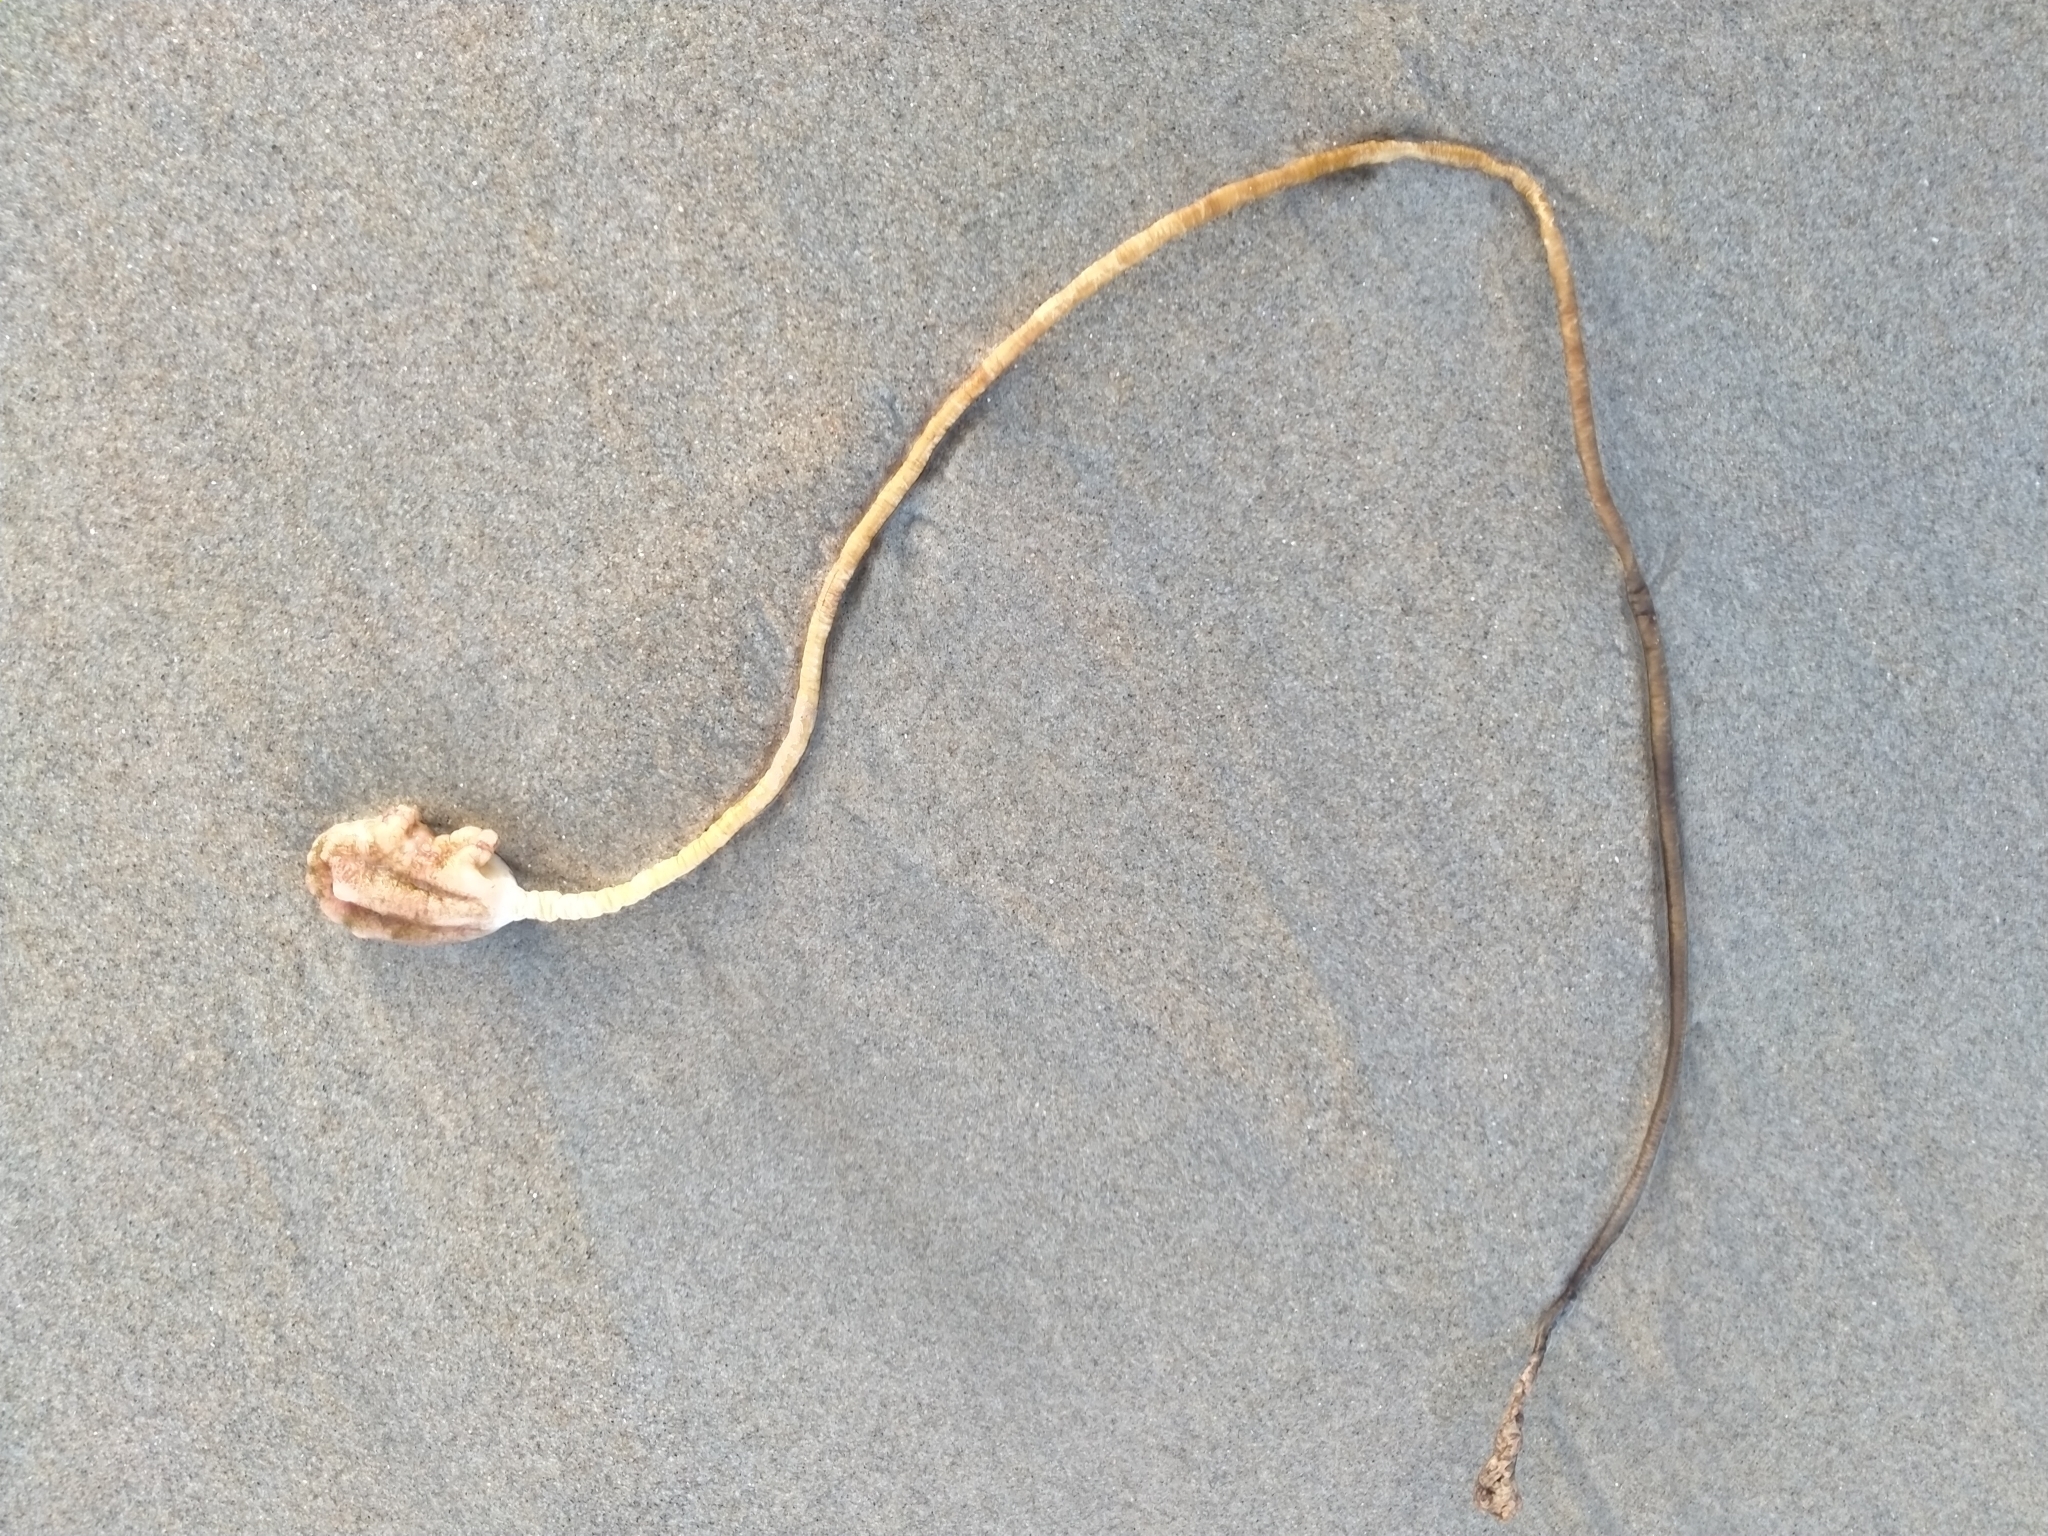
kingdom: Animalia
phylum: Chordata
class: Ascidiacea
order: Stolidobranchia
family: Pyuridae
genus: Pyura
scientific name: Pyura pachydermatina
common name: Sea tulip
